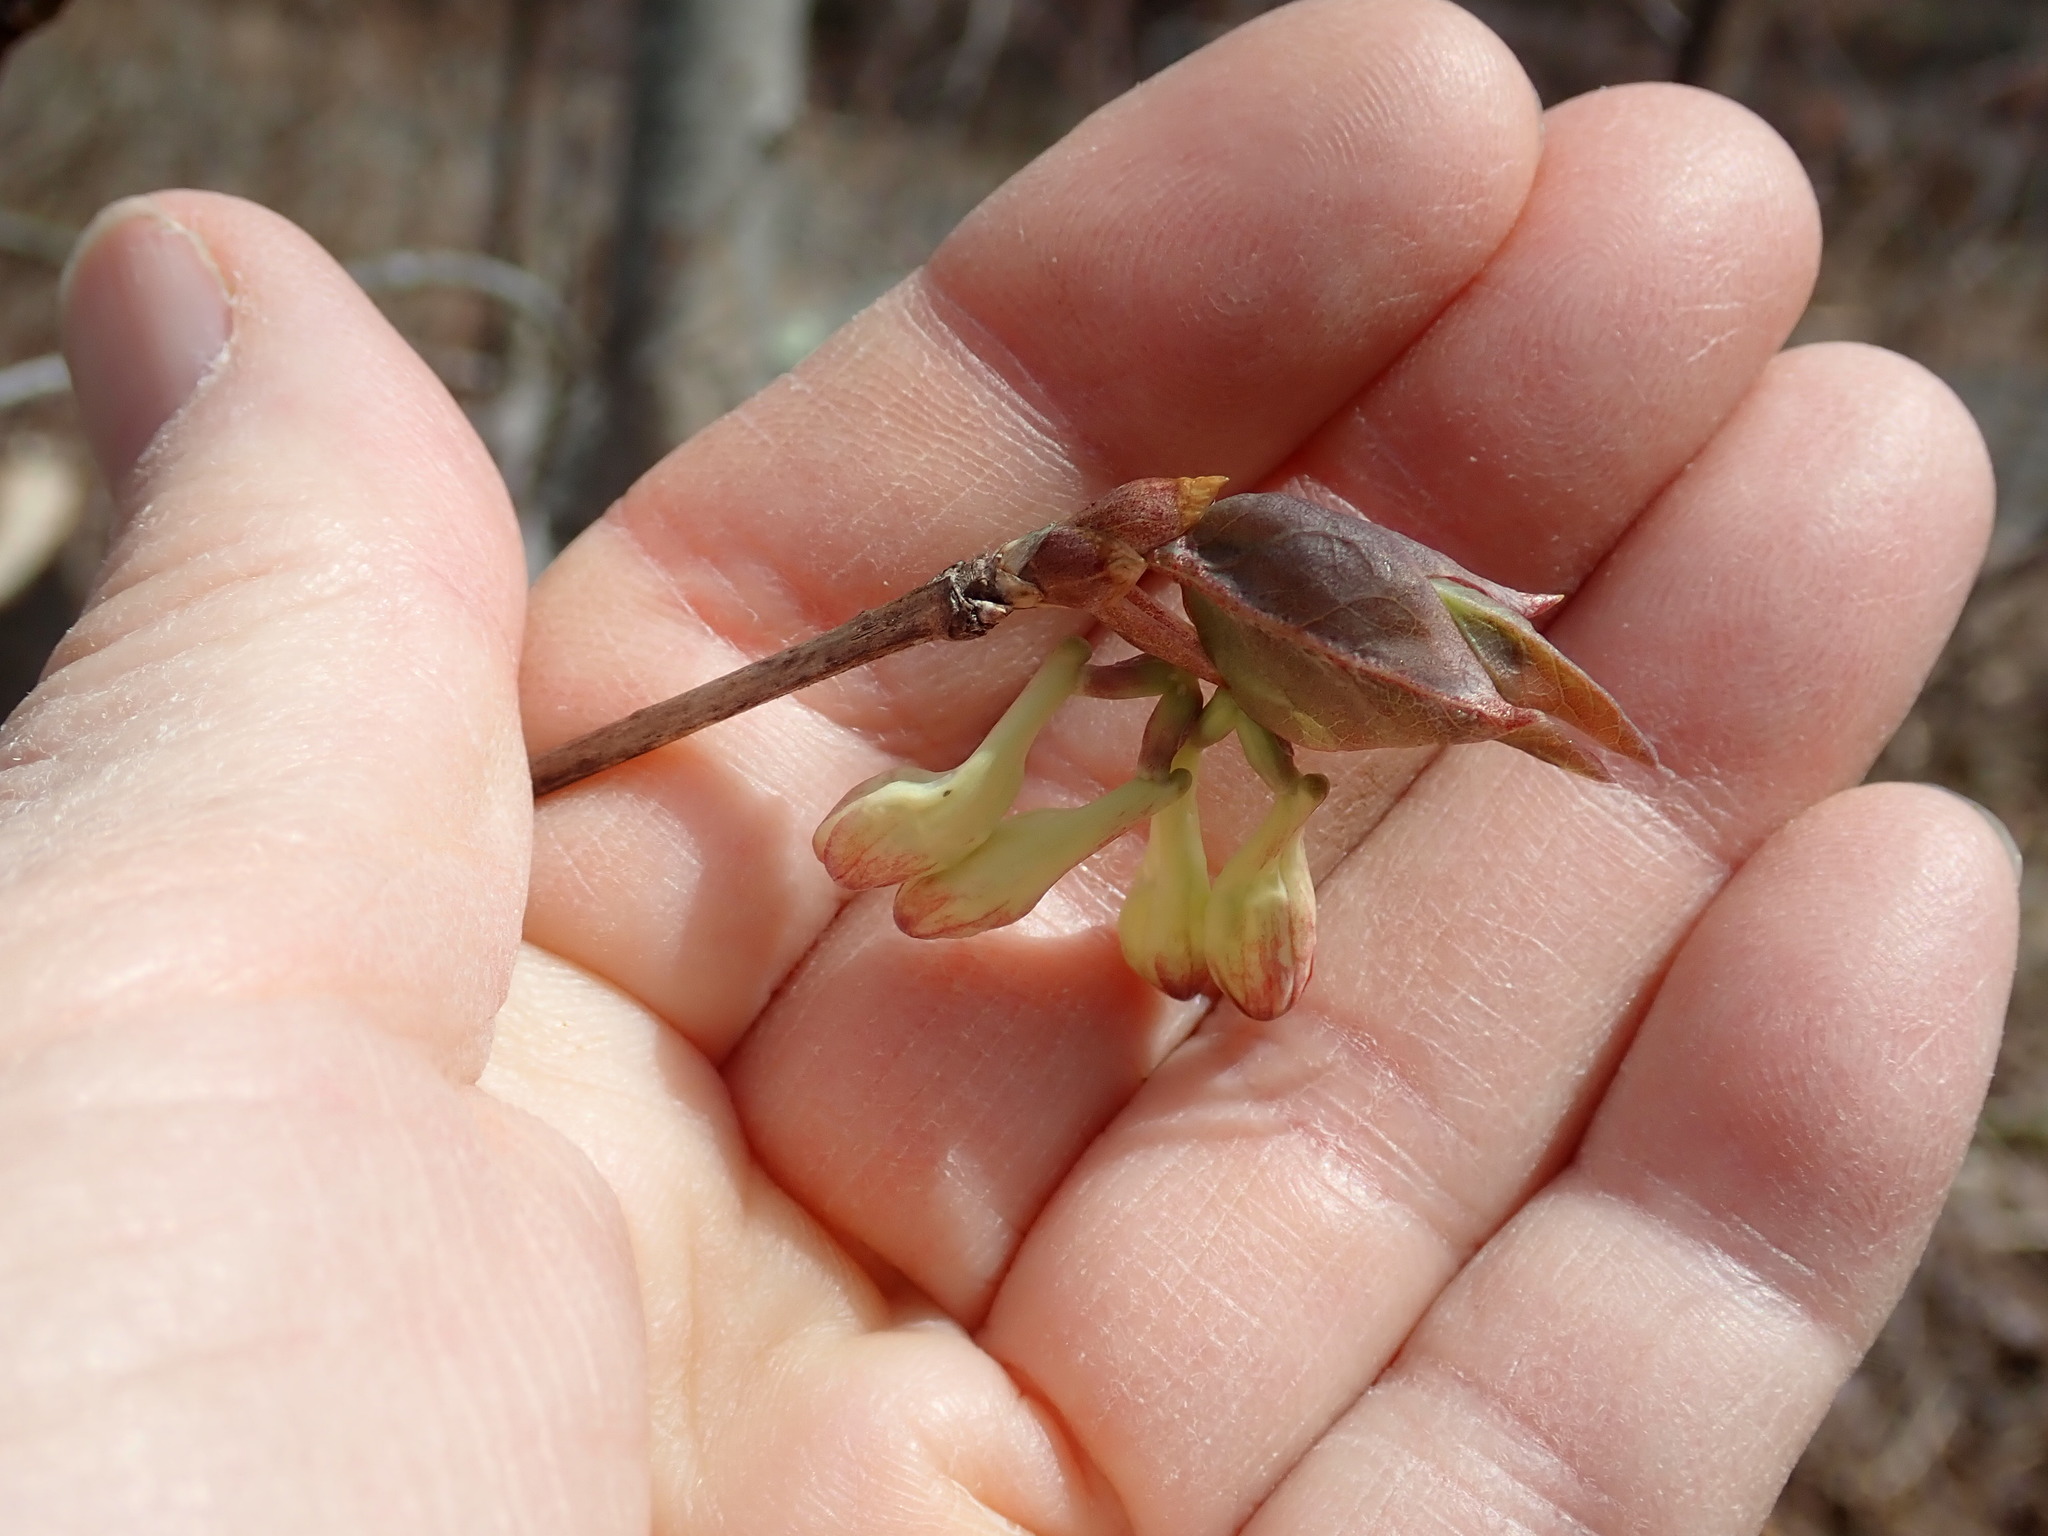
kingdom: Plantae
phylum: Tracheophyta
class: Magnoliopsida
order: Dipsacales
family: Caprifoliaceae
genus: Lonicera
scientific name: Lonicera canadensis
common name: American fly-honeysuckle
